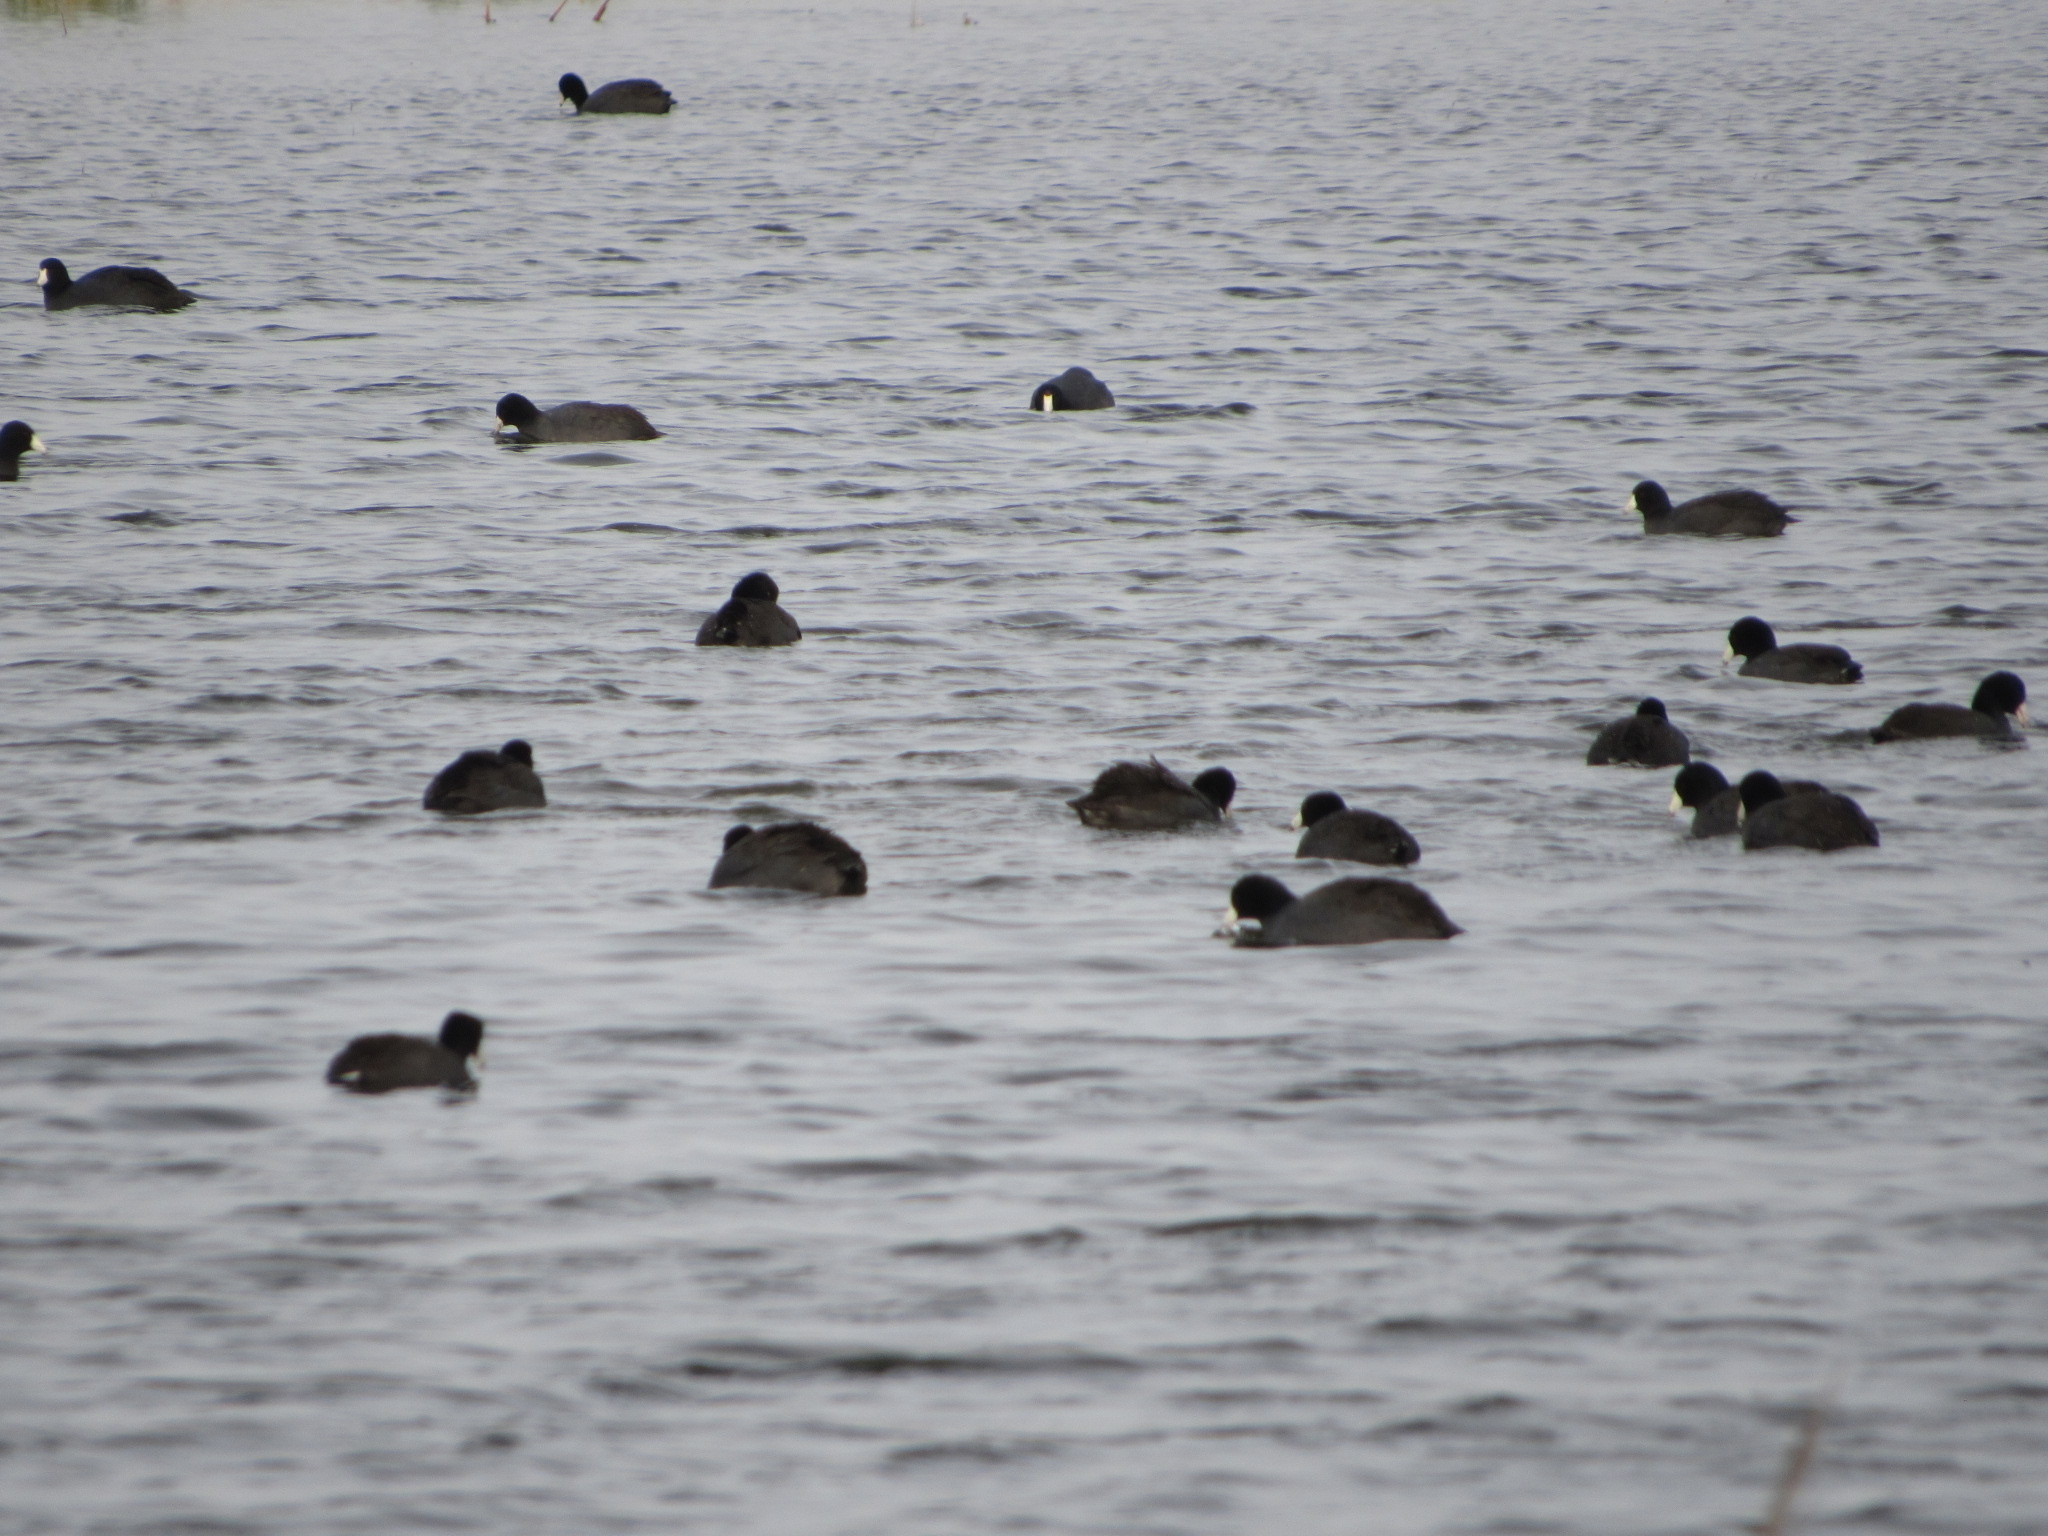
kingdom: Animalia
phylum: Chordata
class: Aves
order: Gruiformes
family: Rallidae
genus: Fulica
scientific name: Fulica americana
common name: American coot
